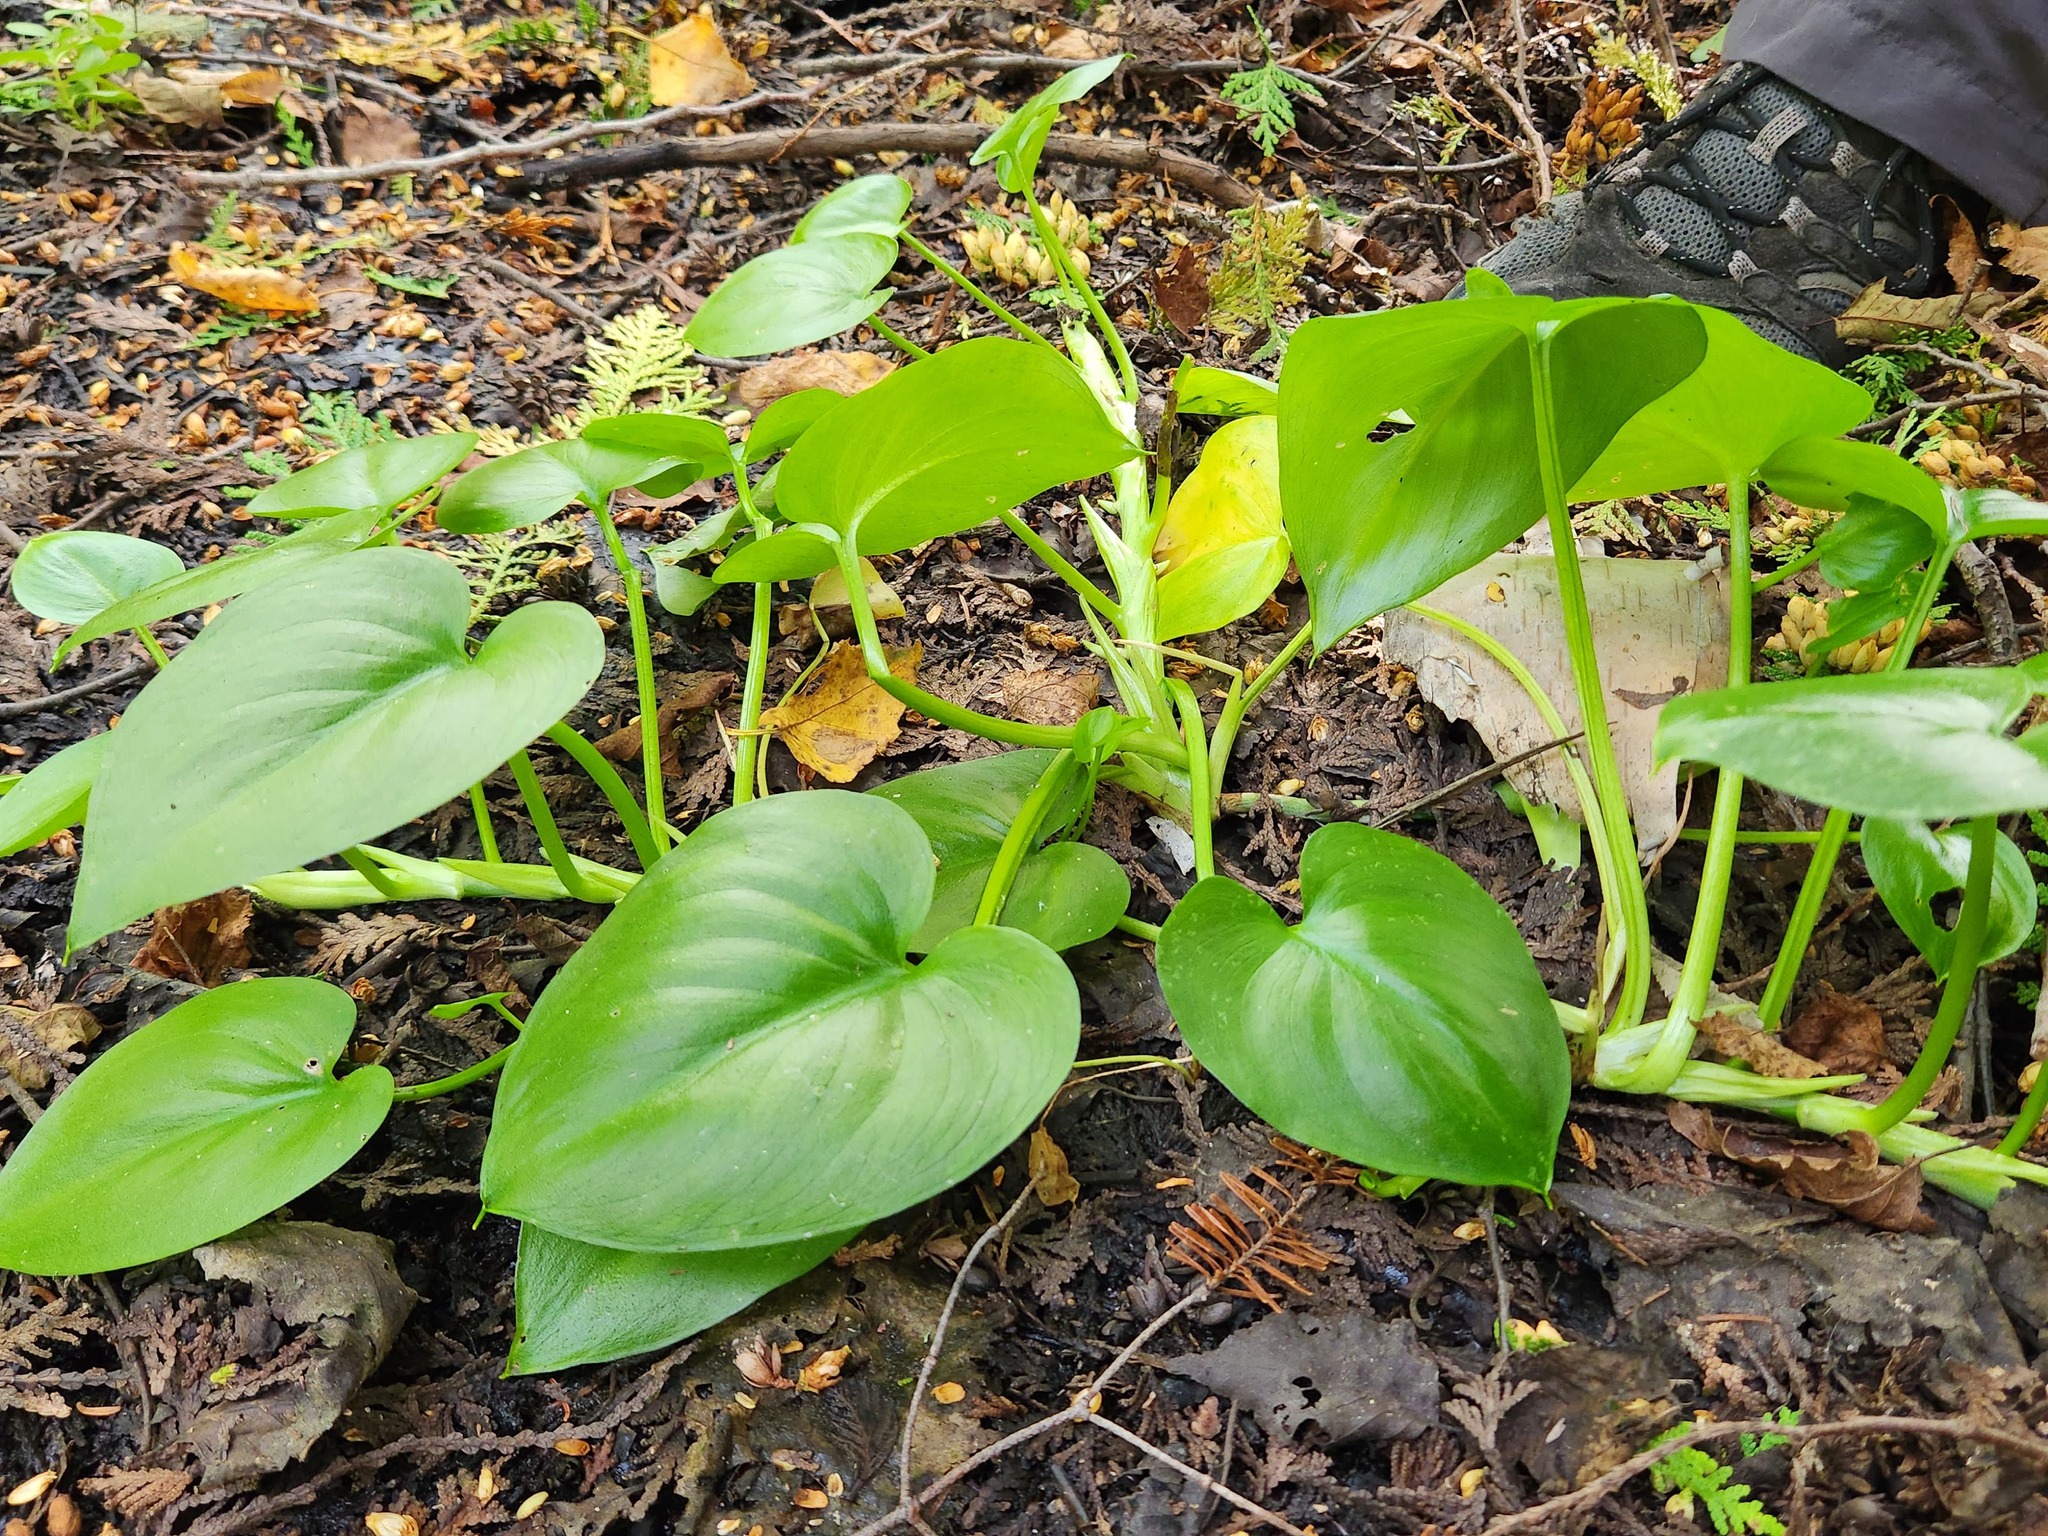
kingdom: Plantae
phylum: Tracheophyta
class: Liliopsida
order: Alismatales
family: Araceae
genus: Calla
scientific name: Calla palustris
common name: Bog arum
